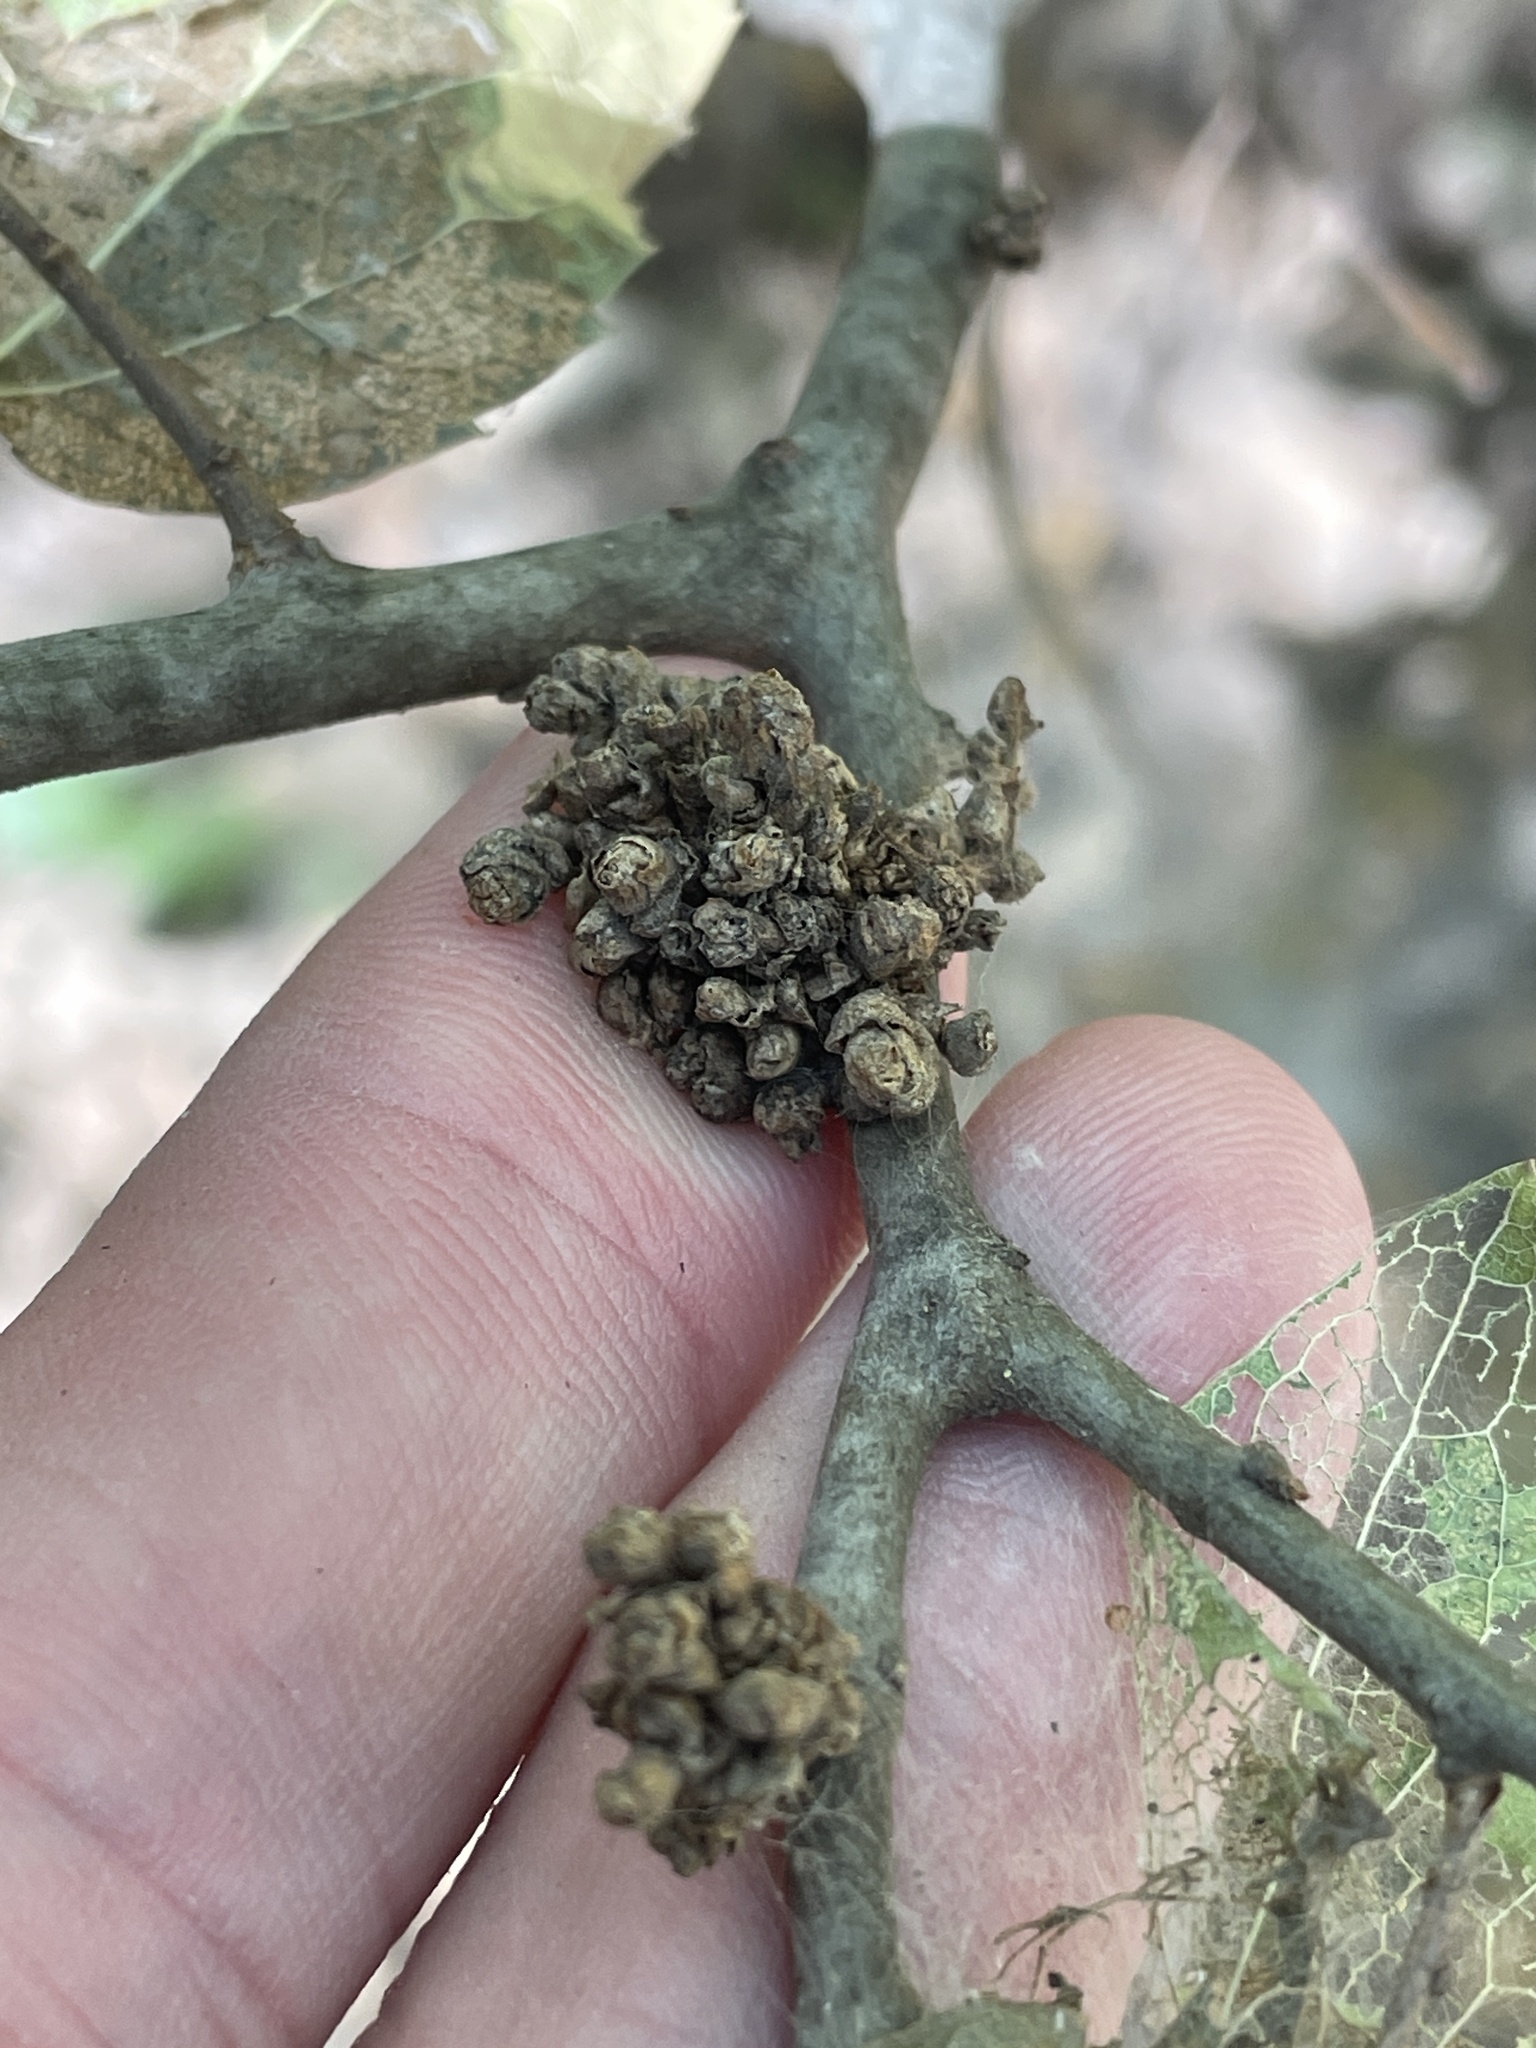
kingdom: Animalia
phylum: Arthropoda
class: Arachnida
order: Trombidiformes
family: Eriophyidae
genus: Aceria
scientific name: Aceria
